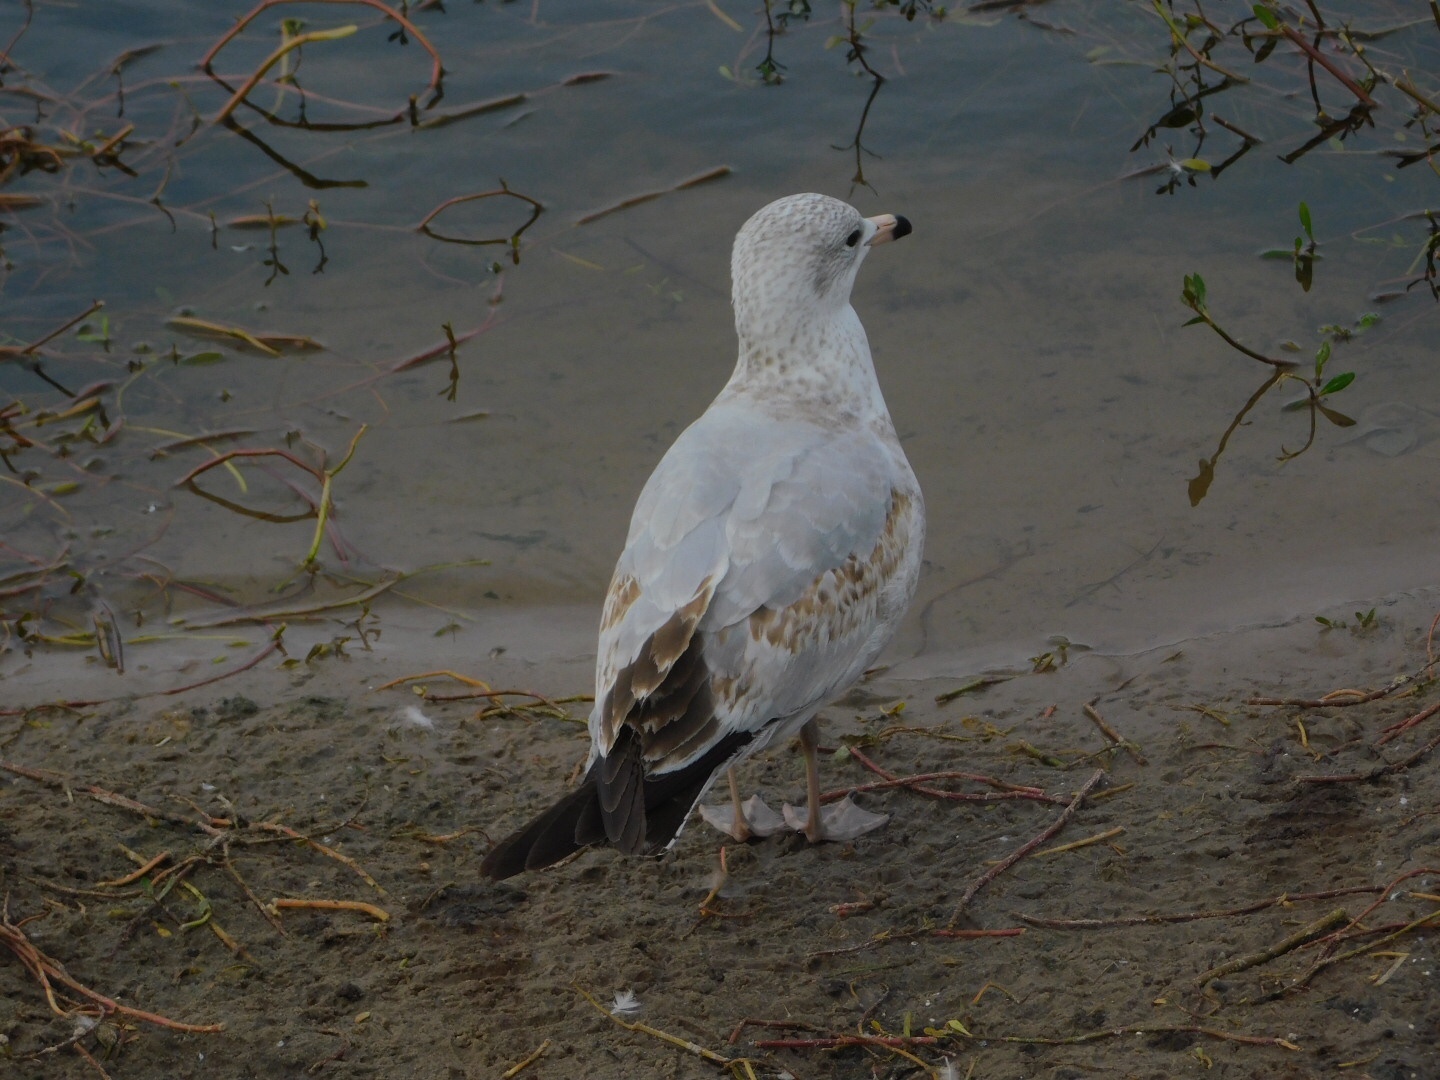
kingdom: Animalia
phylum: Chordata
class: Aves
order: Charadriiformes
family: Laridae
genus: Larus
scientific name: Larus delawarensis
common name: Ring-billed gull
